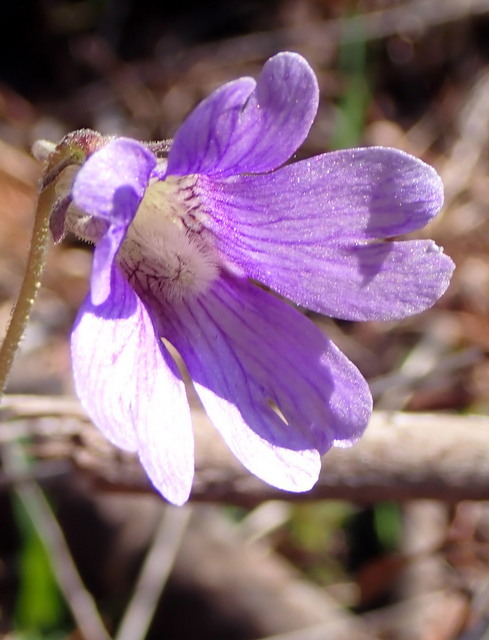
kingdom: Plantae
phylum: Tracheophyta
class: Magnoliopsida
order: Lamiales
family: Lentibulariaceae
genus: Pinguicula
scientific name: Pinguicula caerulea
